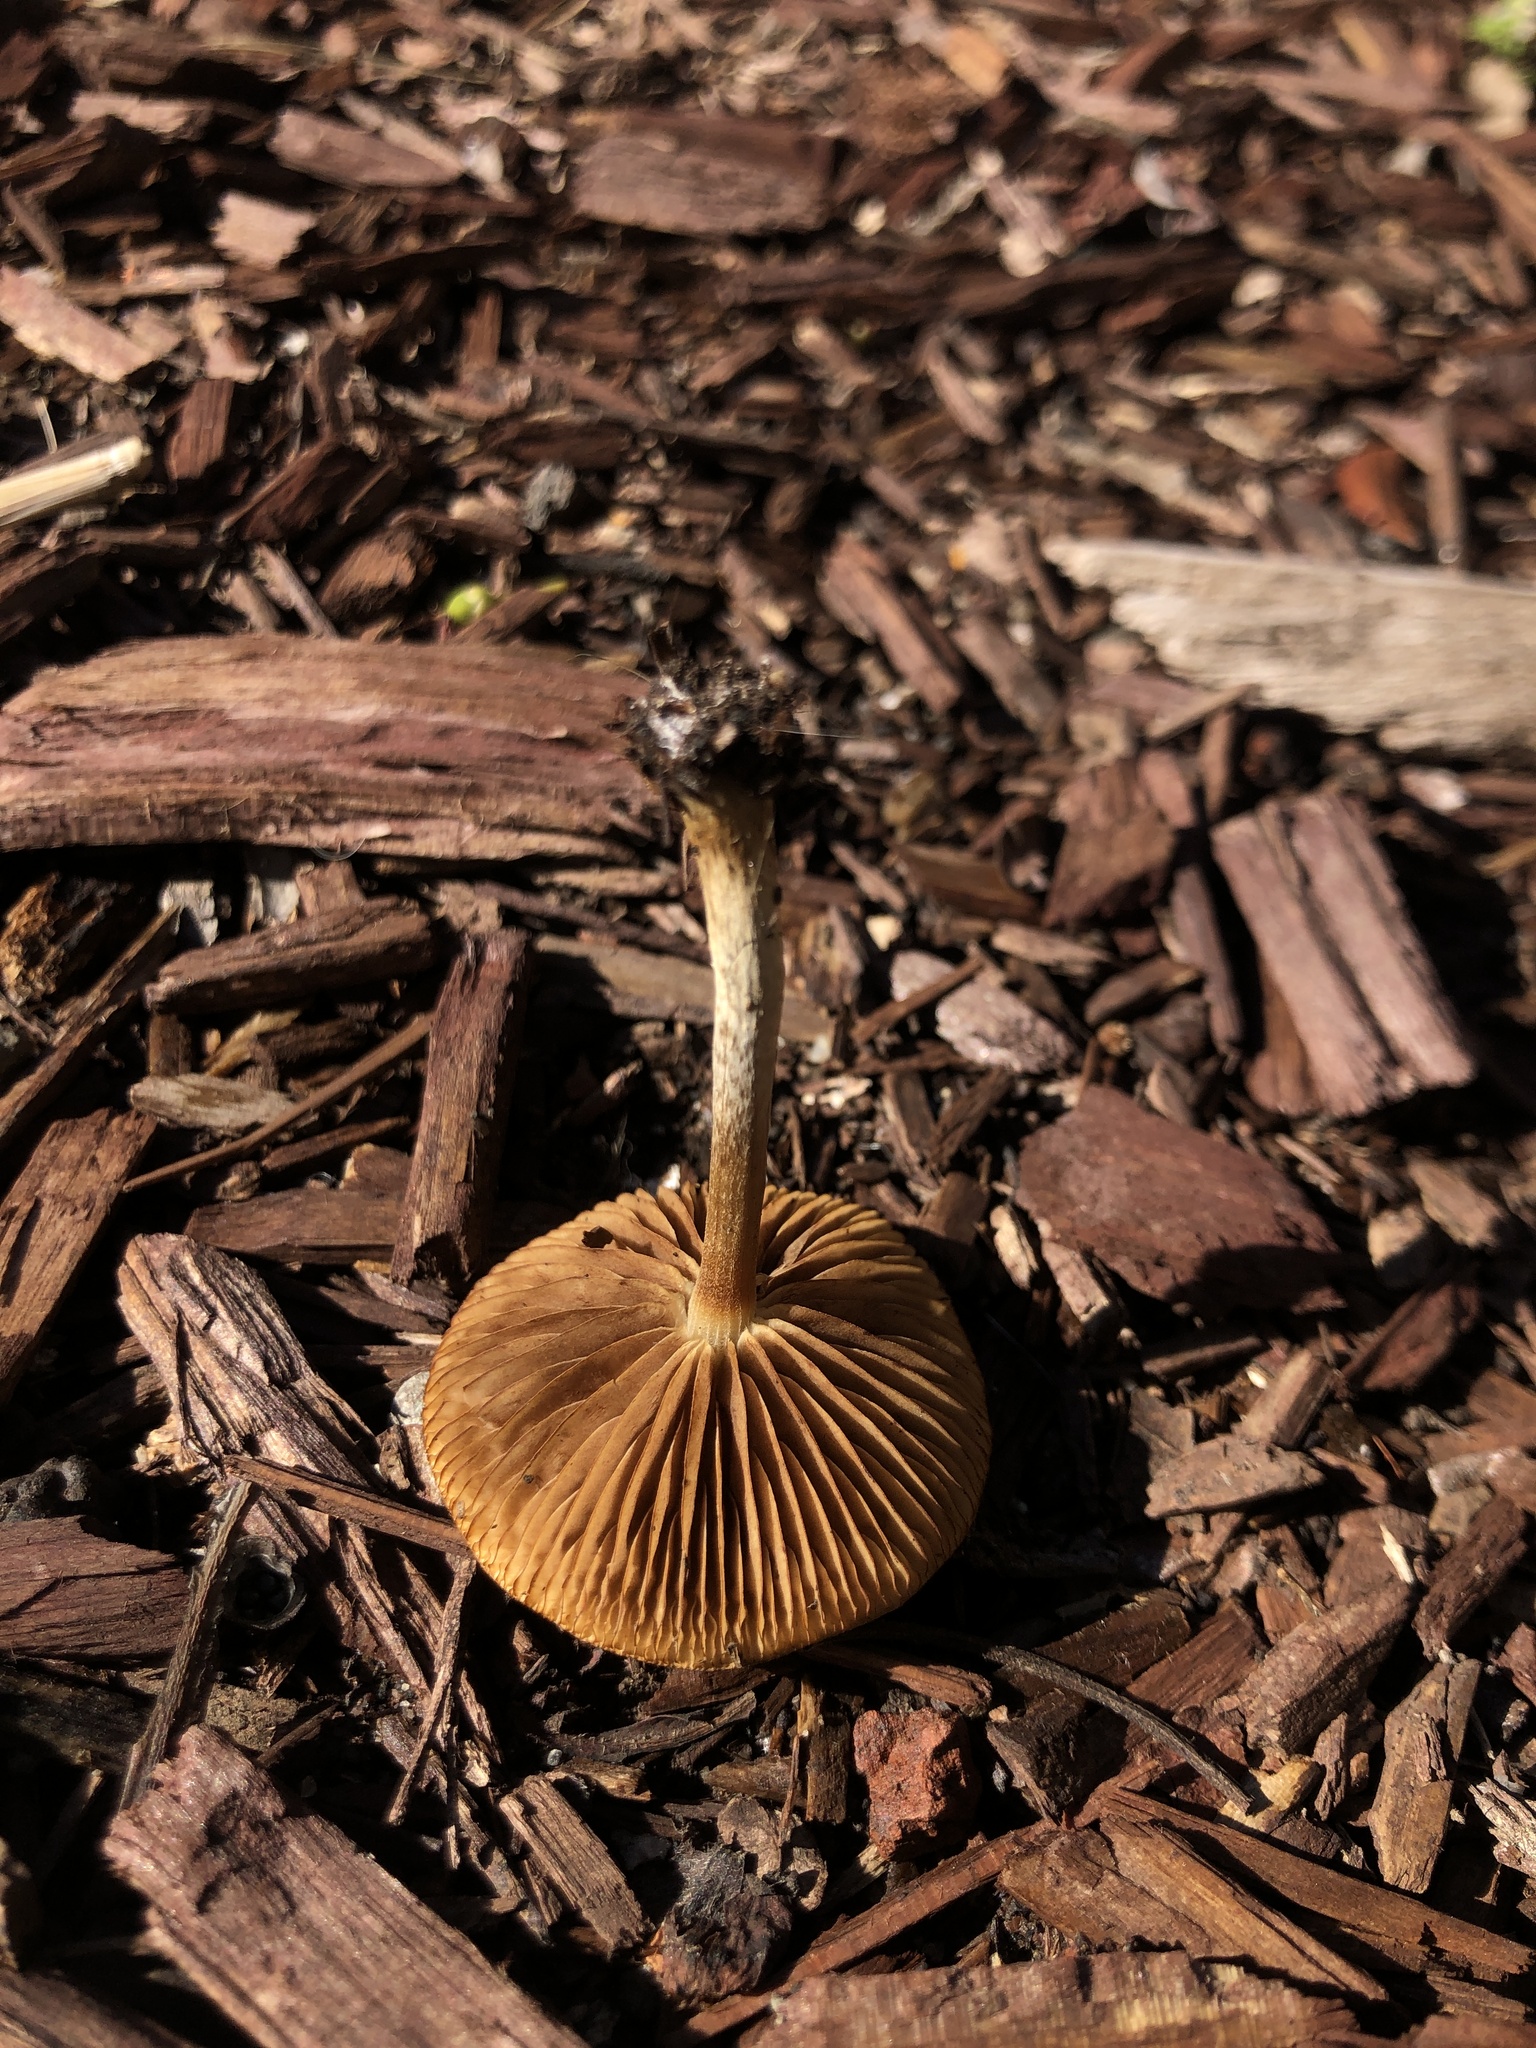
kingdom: Fungi
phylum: Basidiomycota
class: Agaricomycetes
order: Agaricales
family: Strophariaceae
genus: Agrocybe
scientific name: Agrocybe pediades
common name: Common fieldcap
